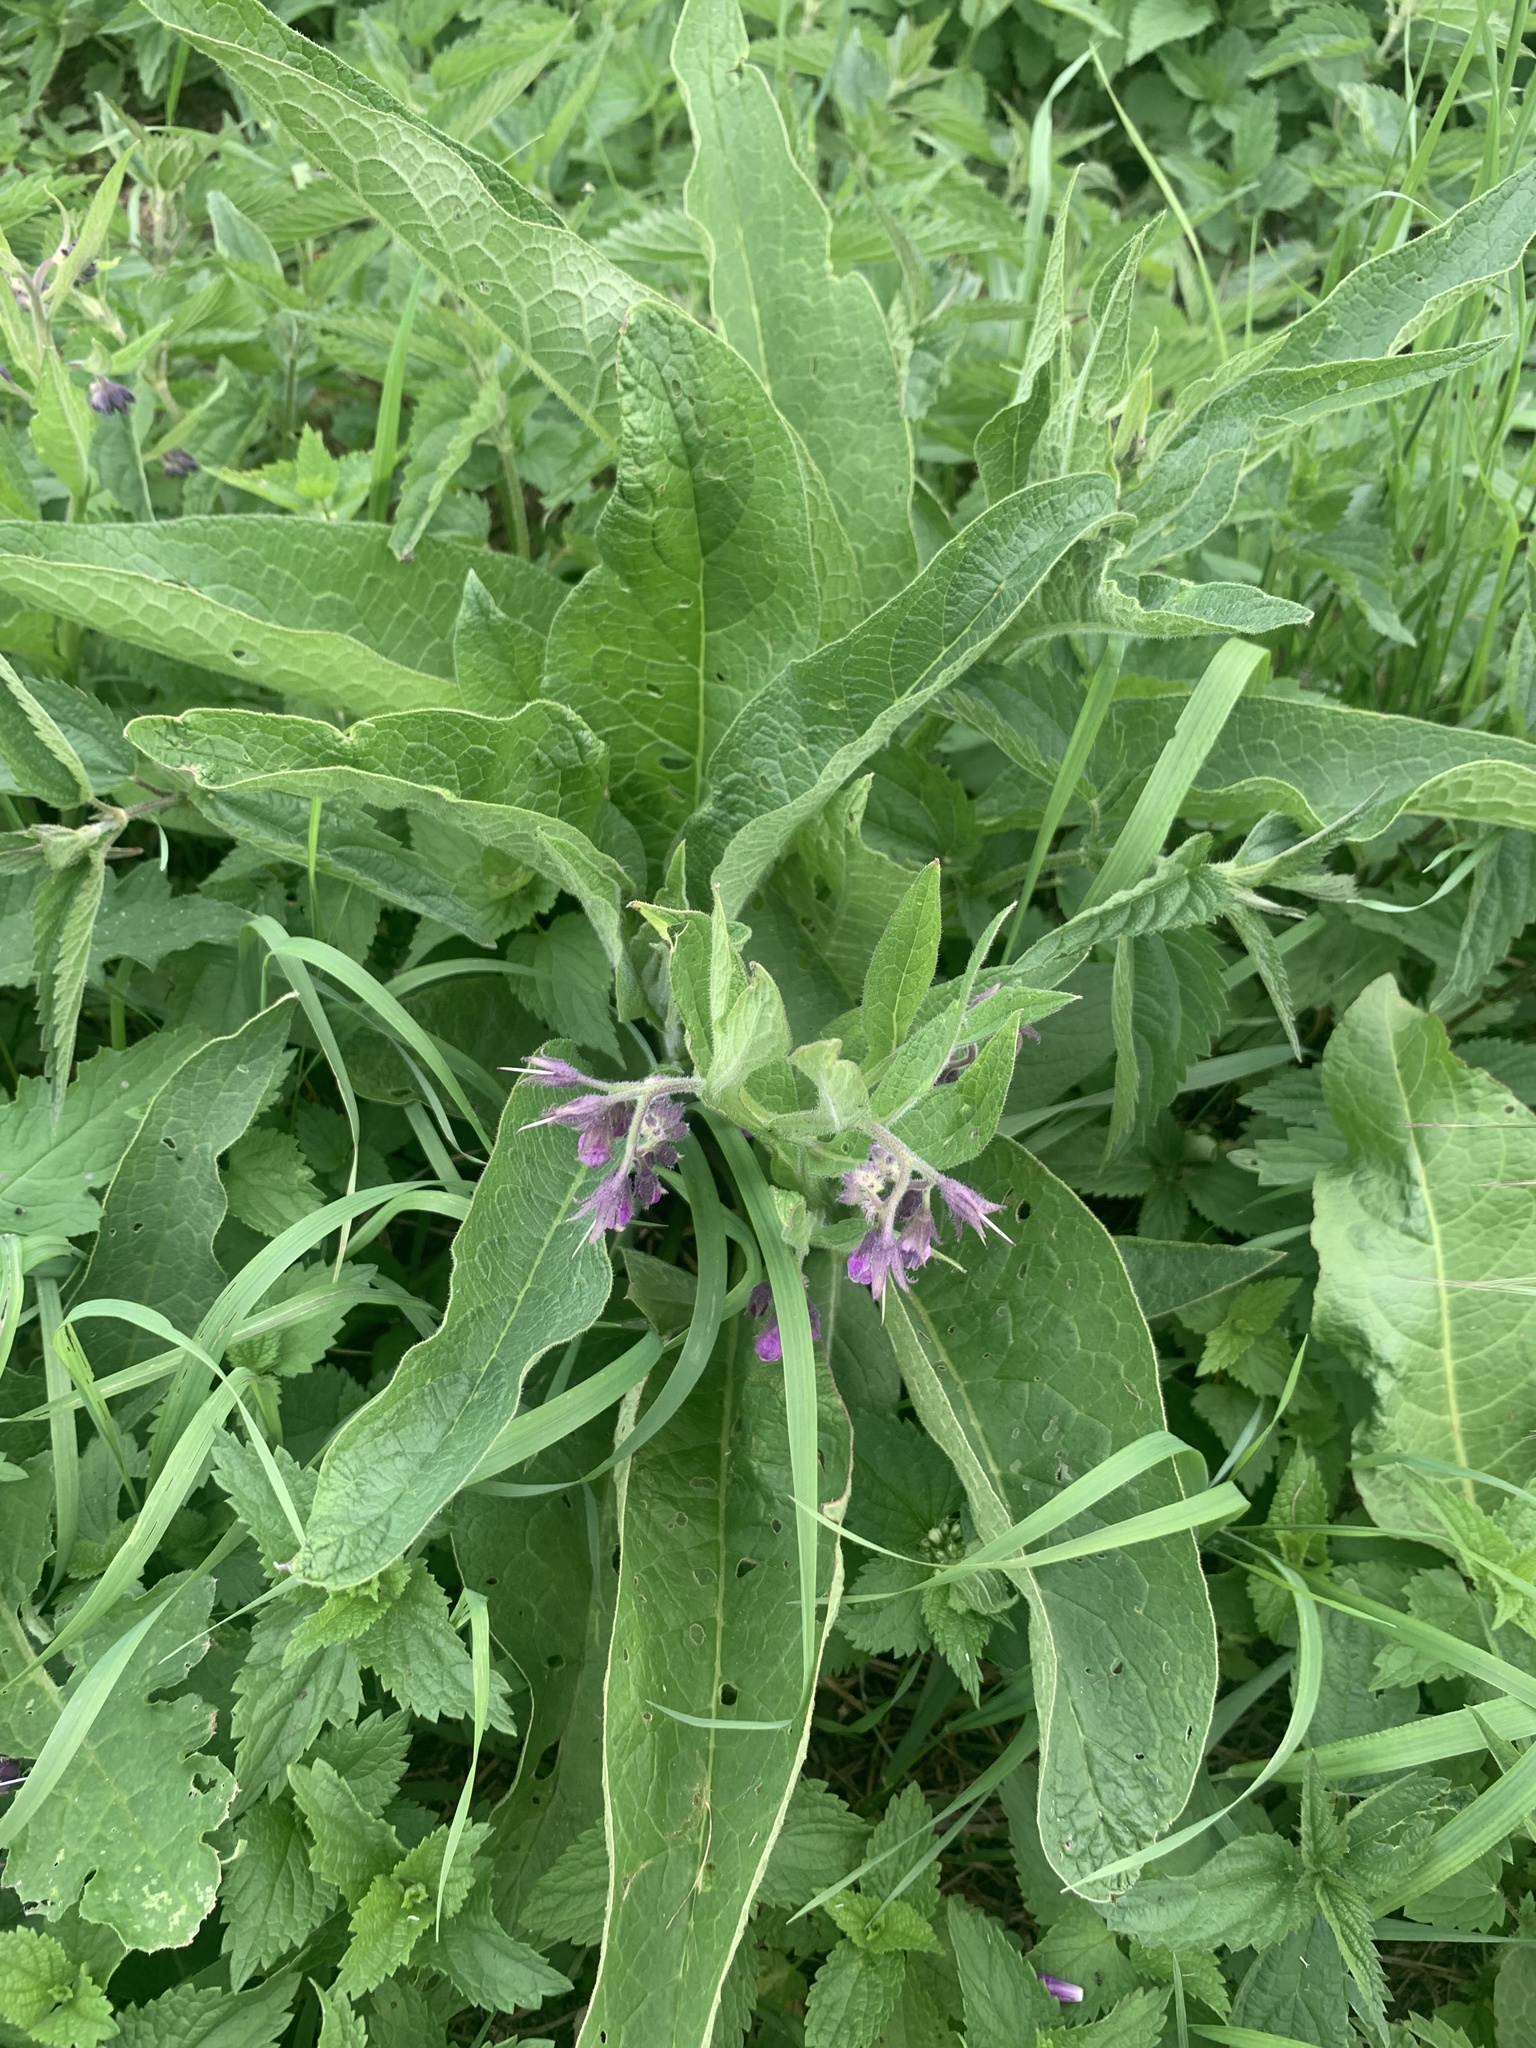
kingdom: Plantae
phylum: Tracheophyta
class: Magnoliopsida
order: Boraginales
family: Boraginaceae
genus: Symphytum
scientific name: Symphytum officinale
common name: Common comfrey
